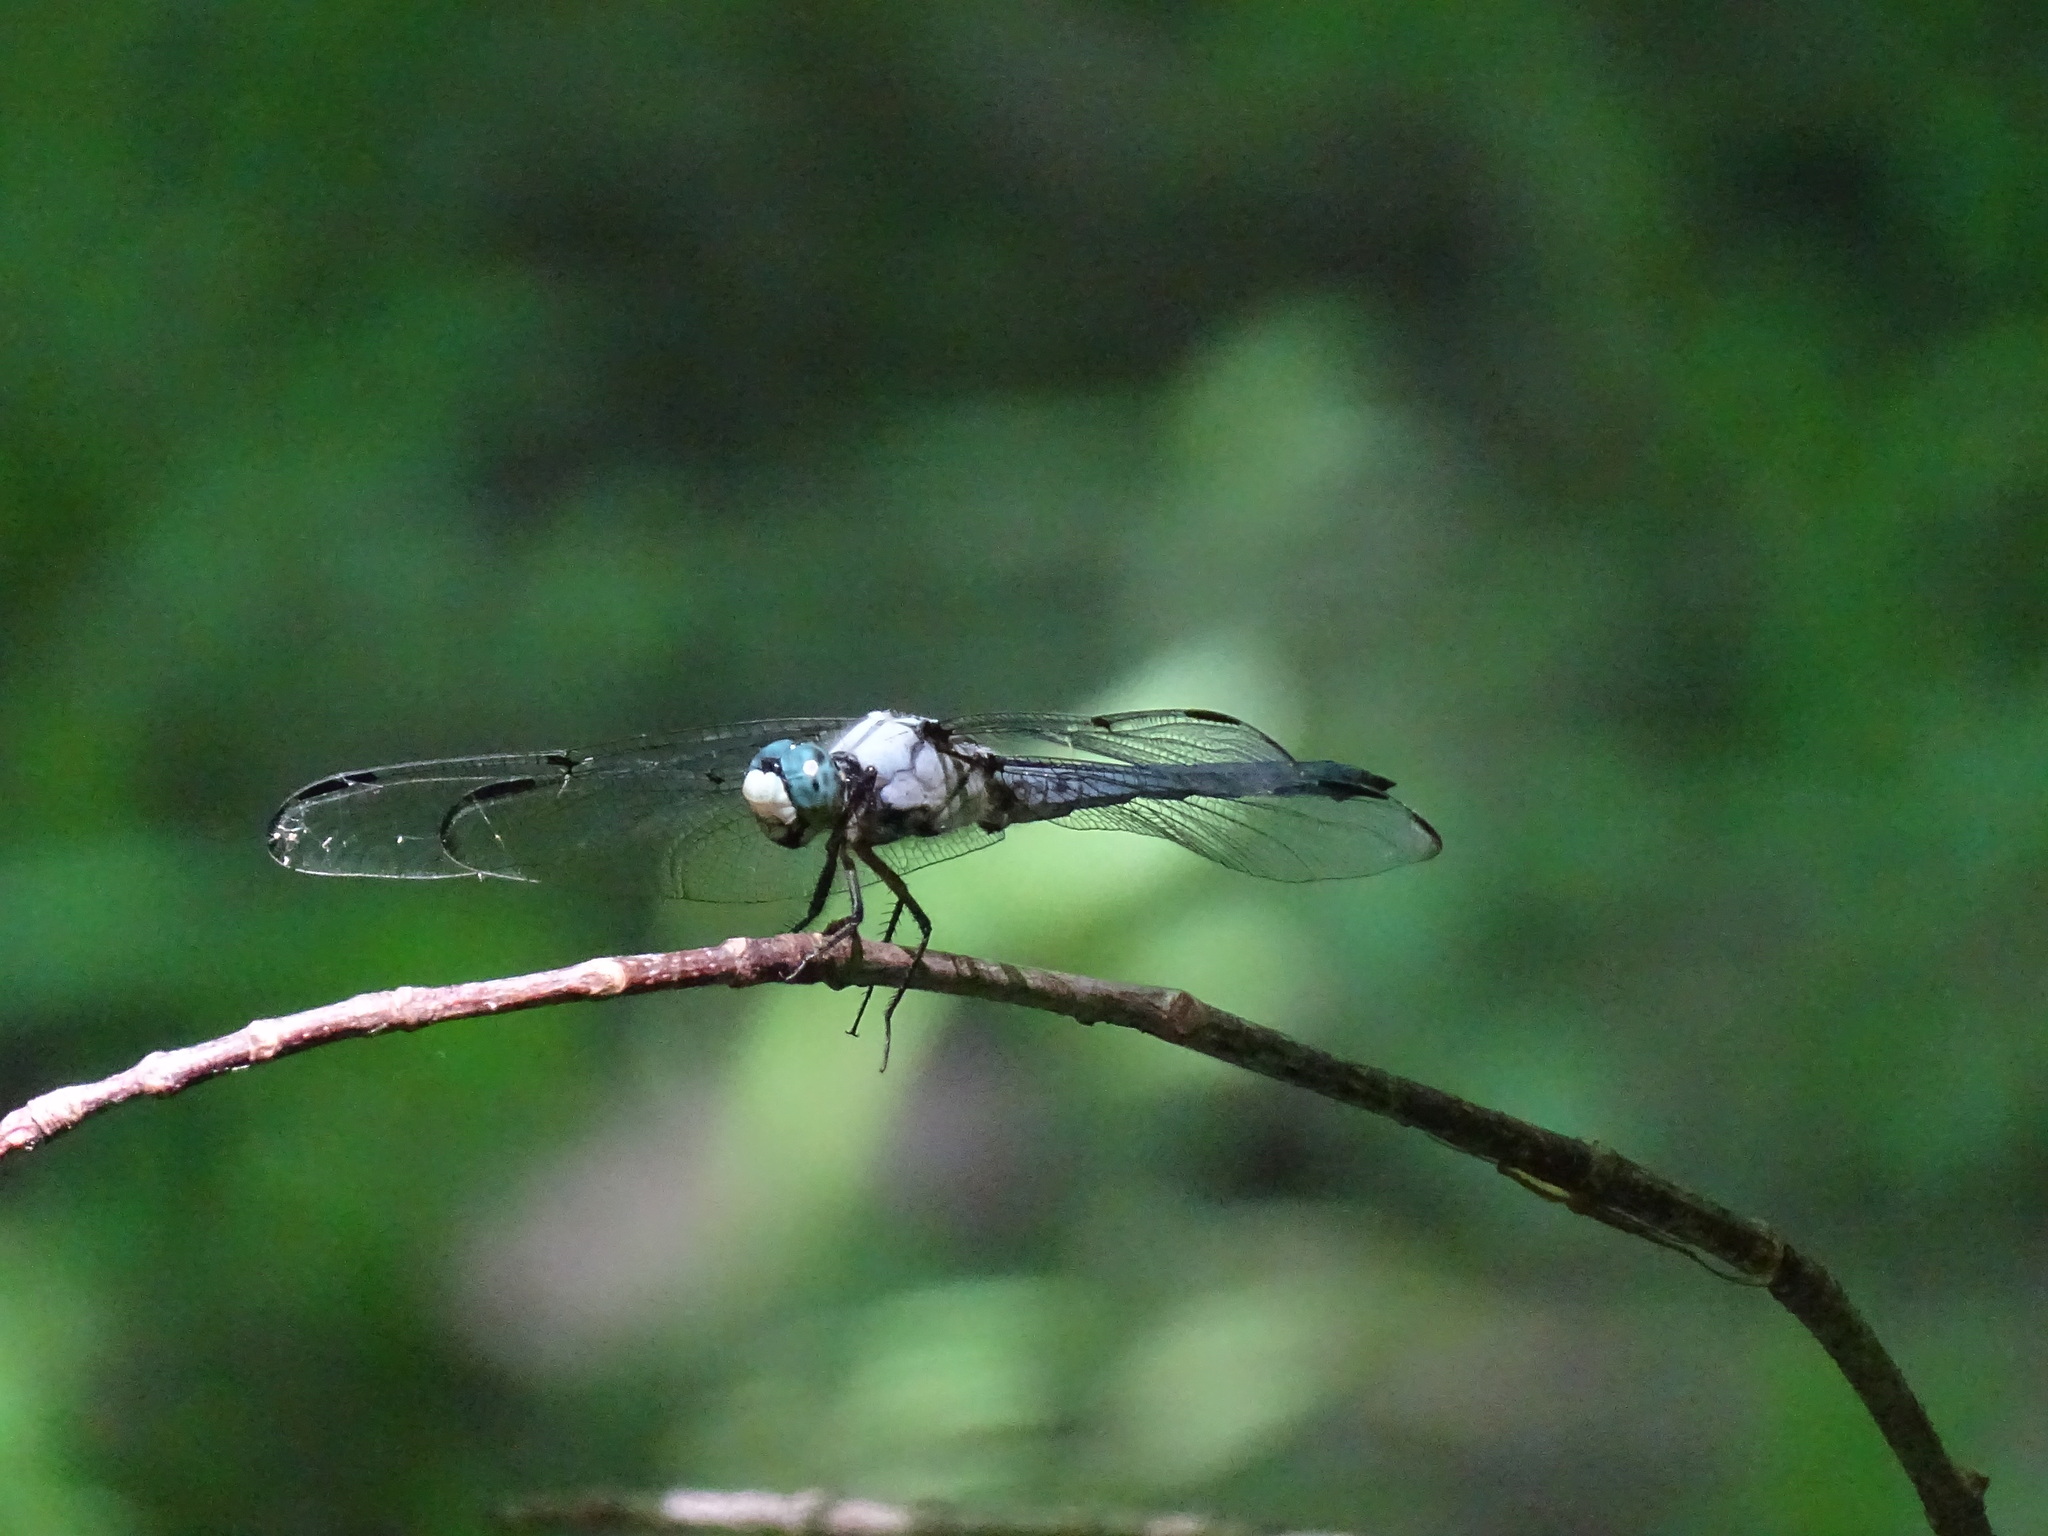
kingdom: Animalia
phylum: Arthropoda
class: Insecta
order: Odonata
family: Libellulidae
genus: Libellula
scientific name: Libellula vibrans
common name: Great blue skimmer
